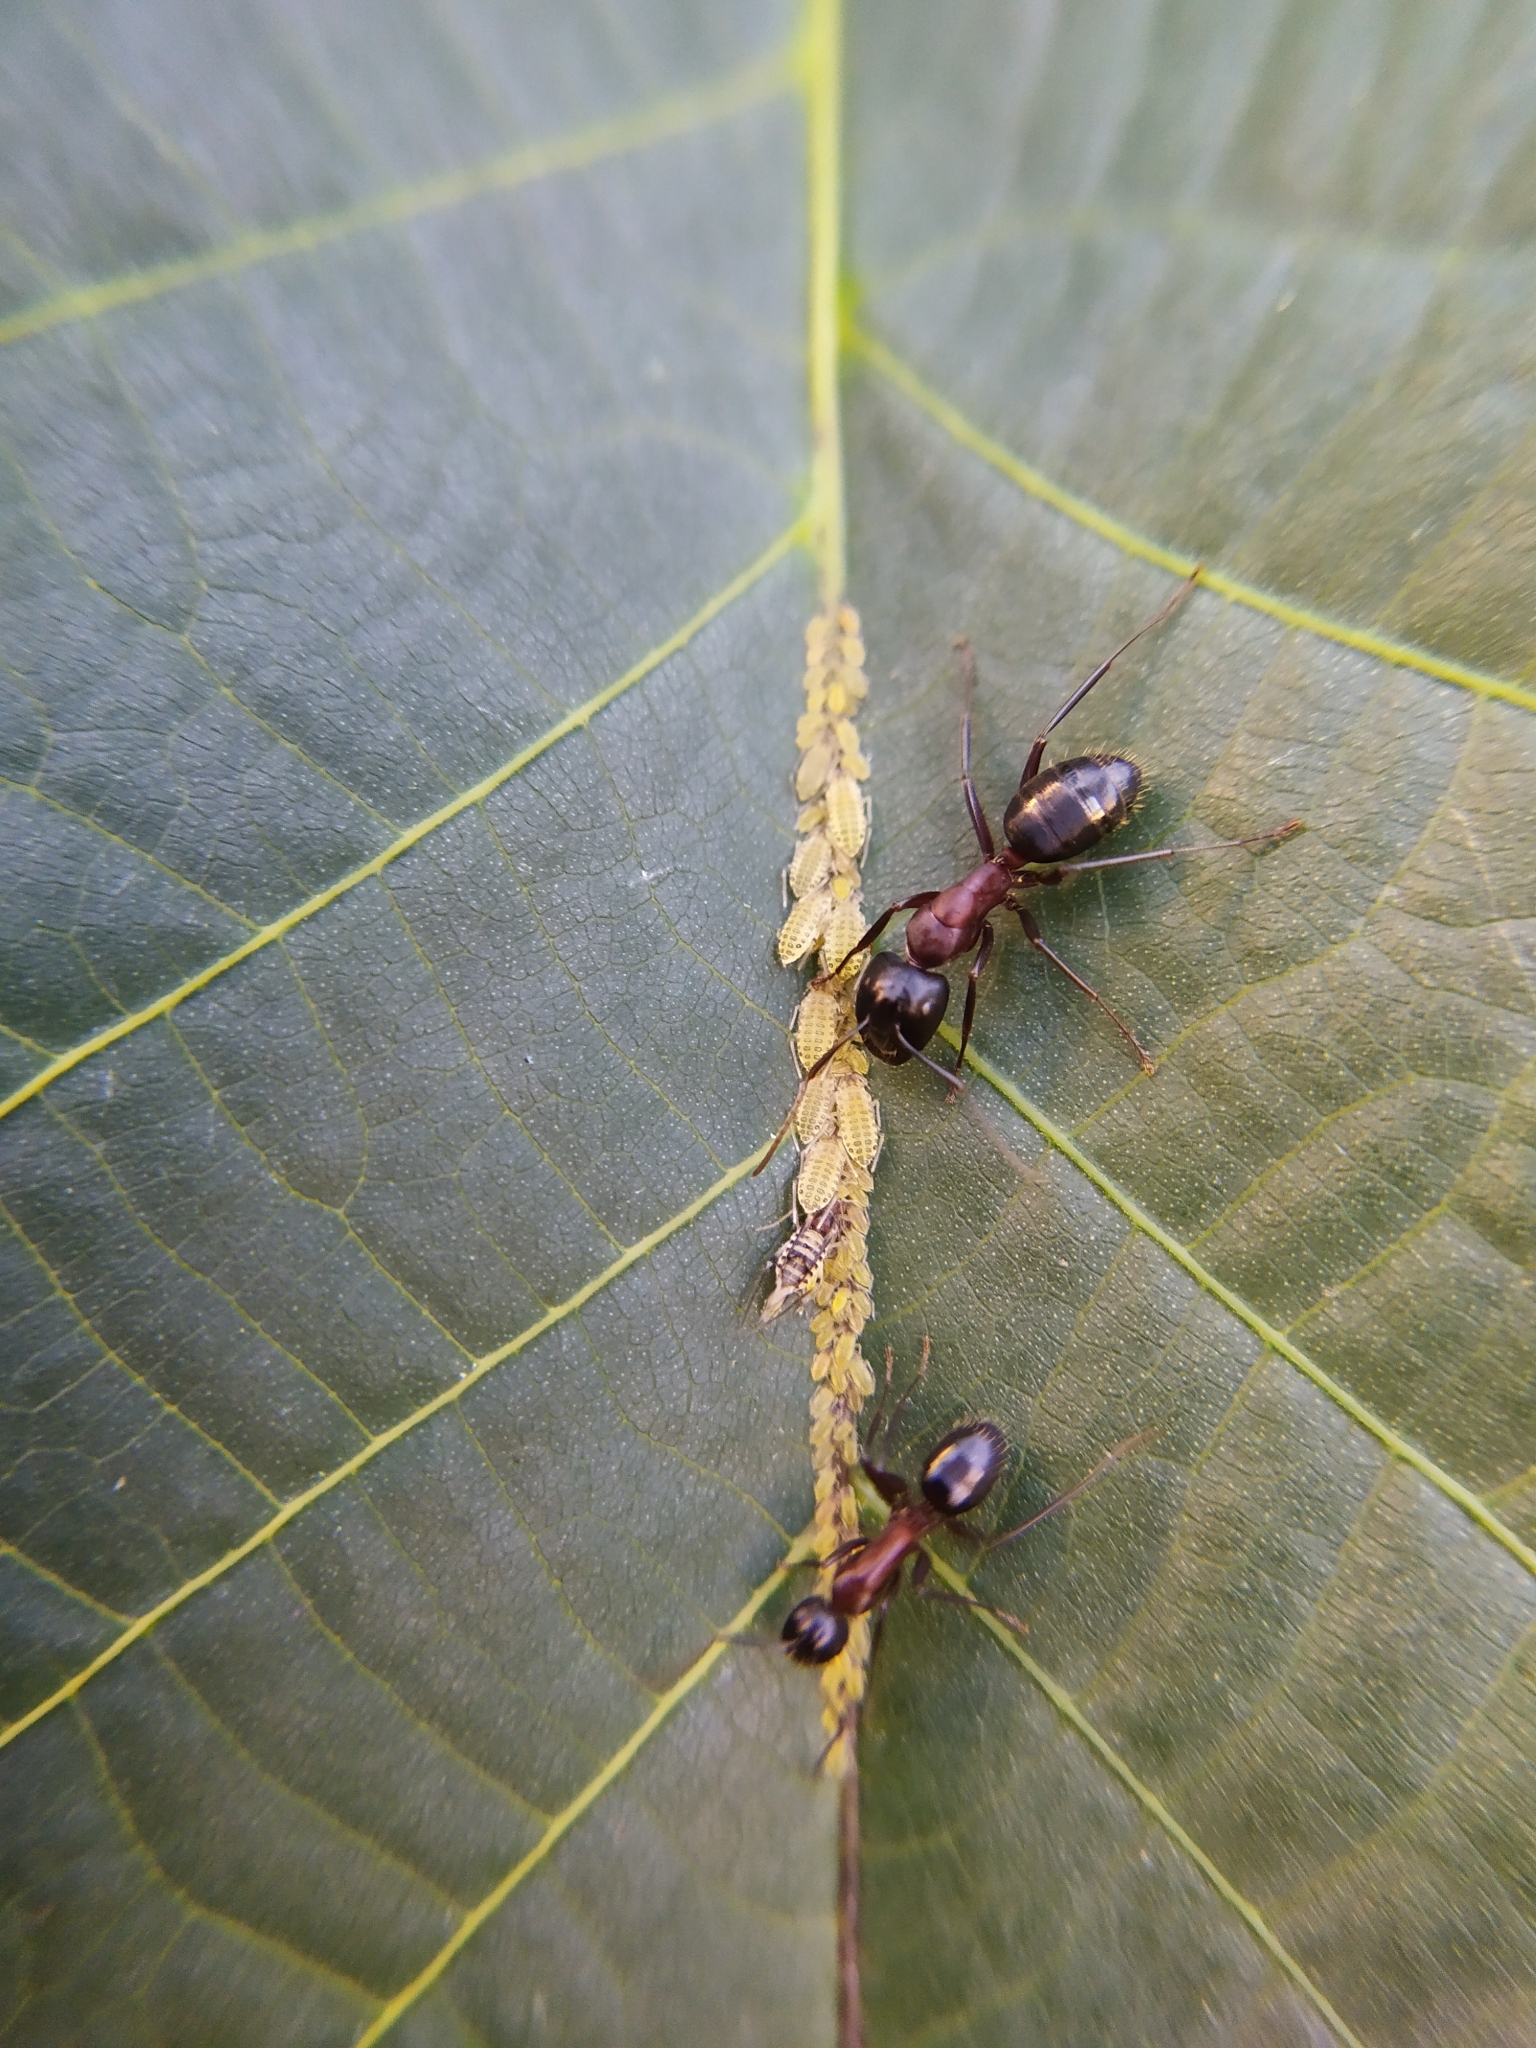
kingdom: Animalia
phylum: Arthropoda
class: Insecta
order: Hemiptera
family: Aphididae
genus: Panaphis
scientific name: Panaphis juglandis
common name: Large walnut aphid
